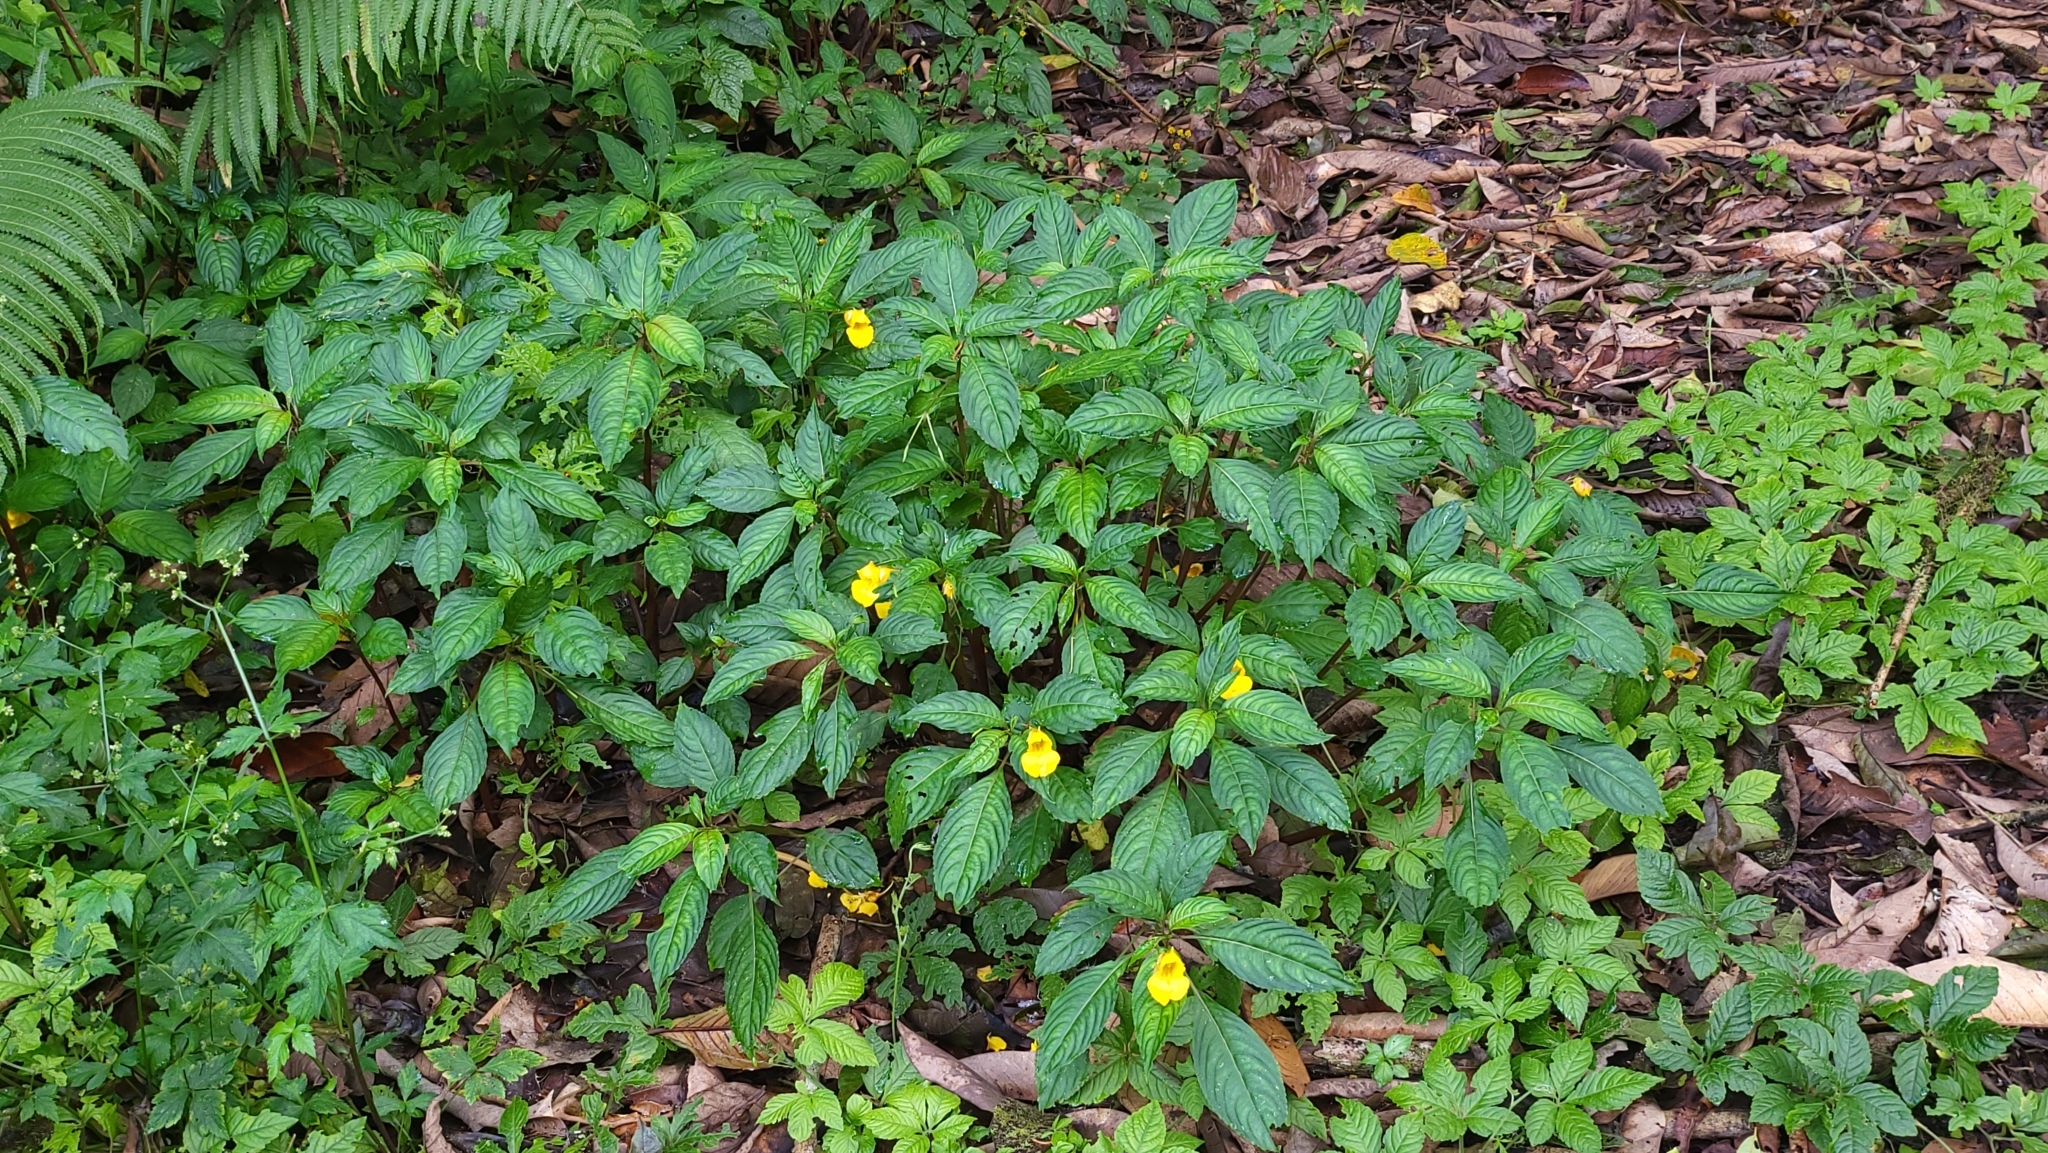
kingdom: Plantae
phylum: Tracheophyta
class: Magnoliopsida
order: Ericales
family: Balsaminaceae
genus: Impatiens
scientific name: Impatiens pyrrhotricha
